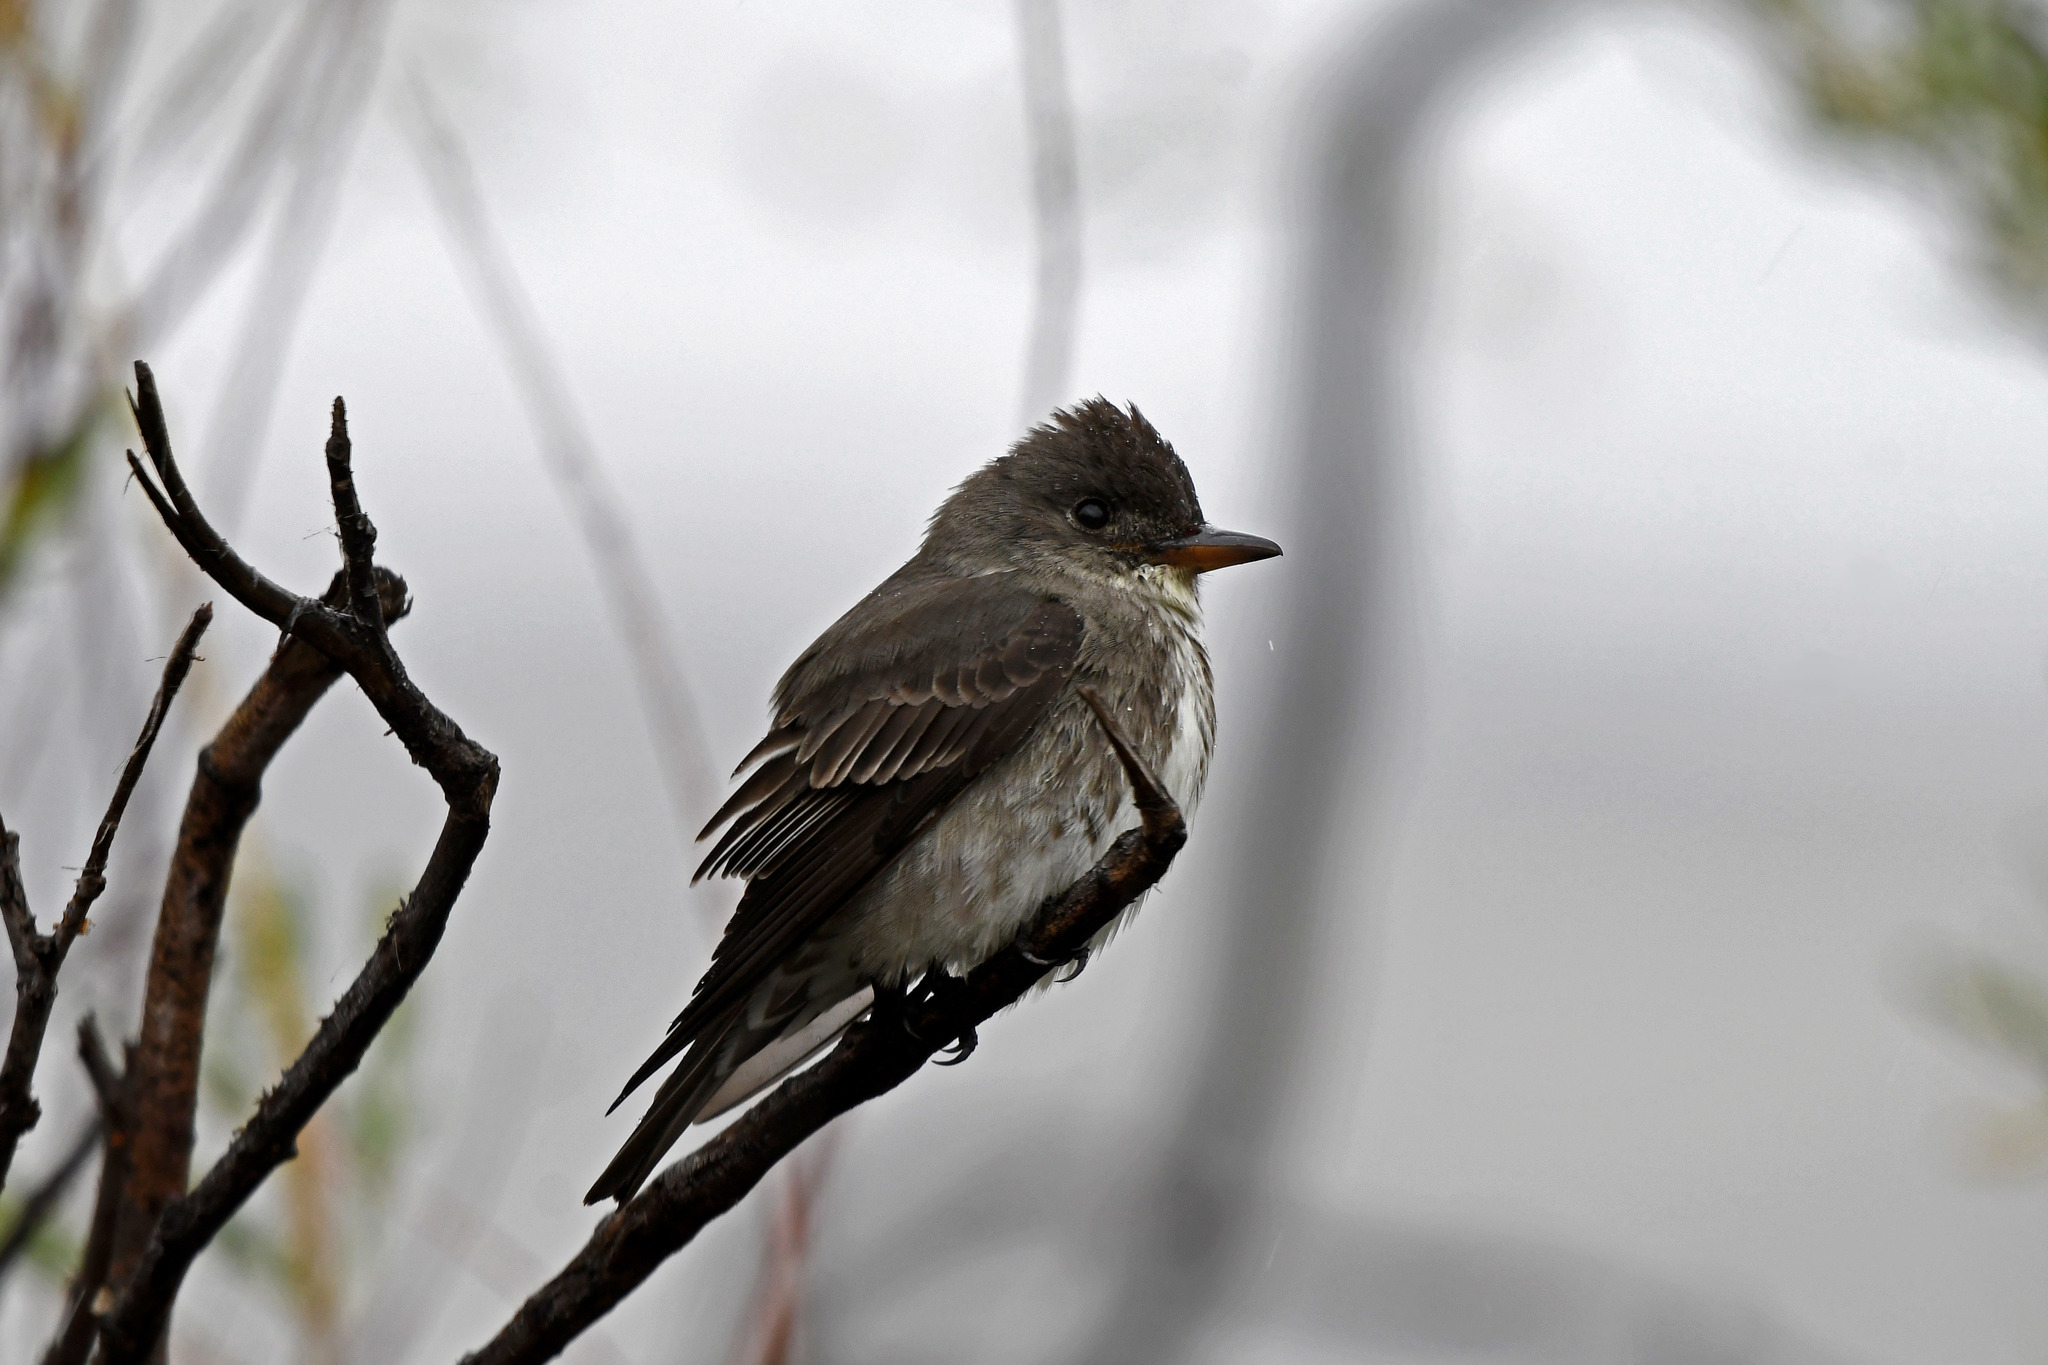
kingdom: Animalia
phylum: Chordata
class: Aves
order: Passeriformes
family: Tyrannidae
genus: Contopus
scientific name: Contopus cooperi
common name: Olive-sided flycatcher
